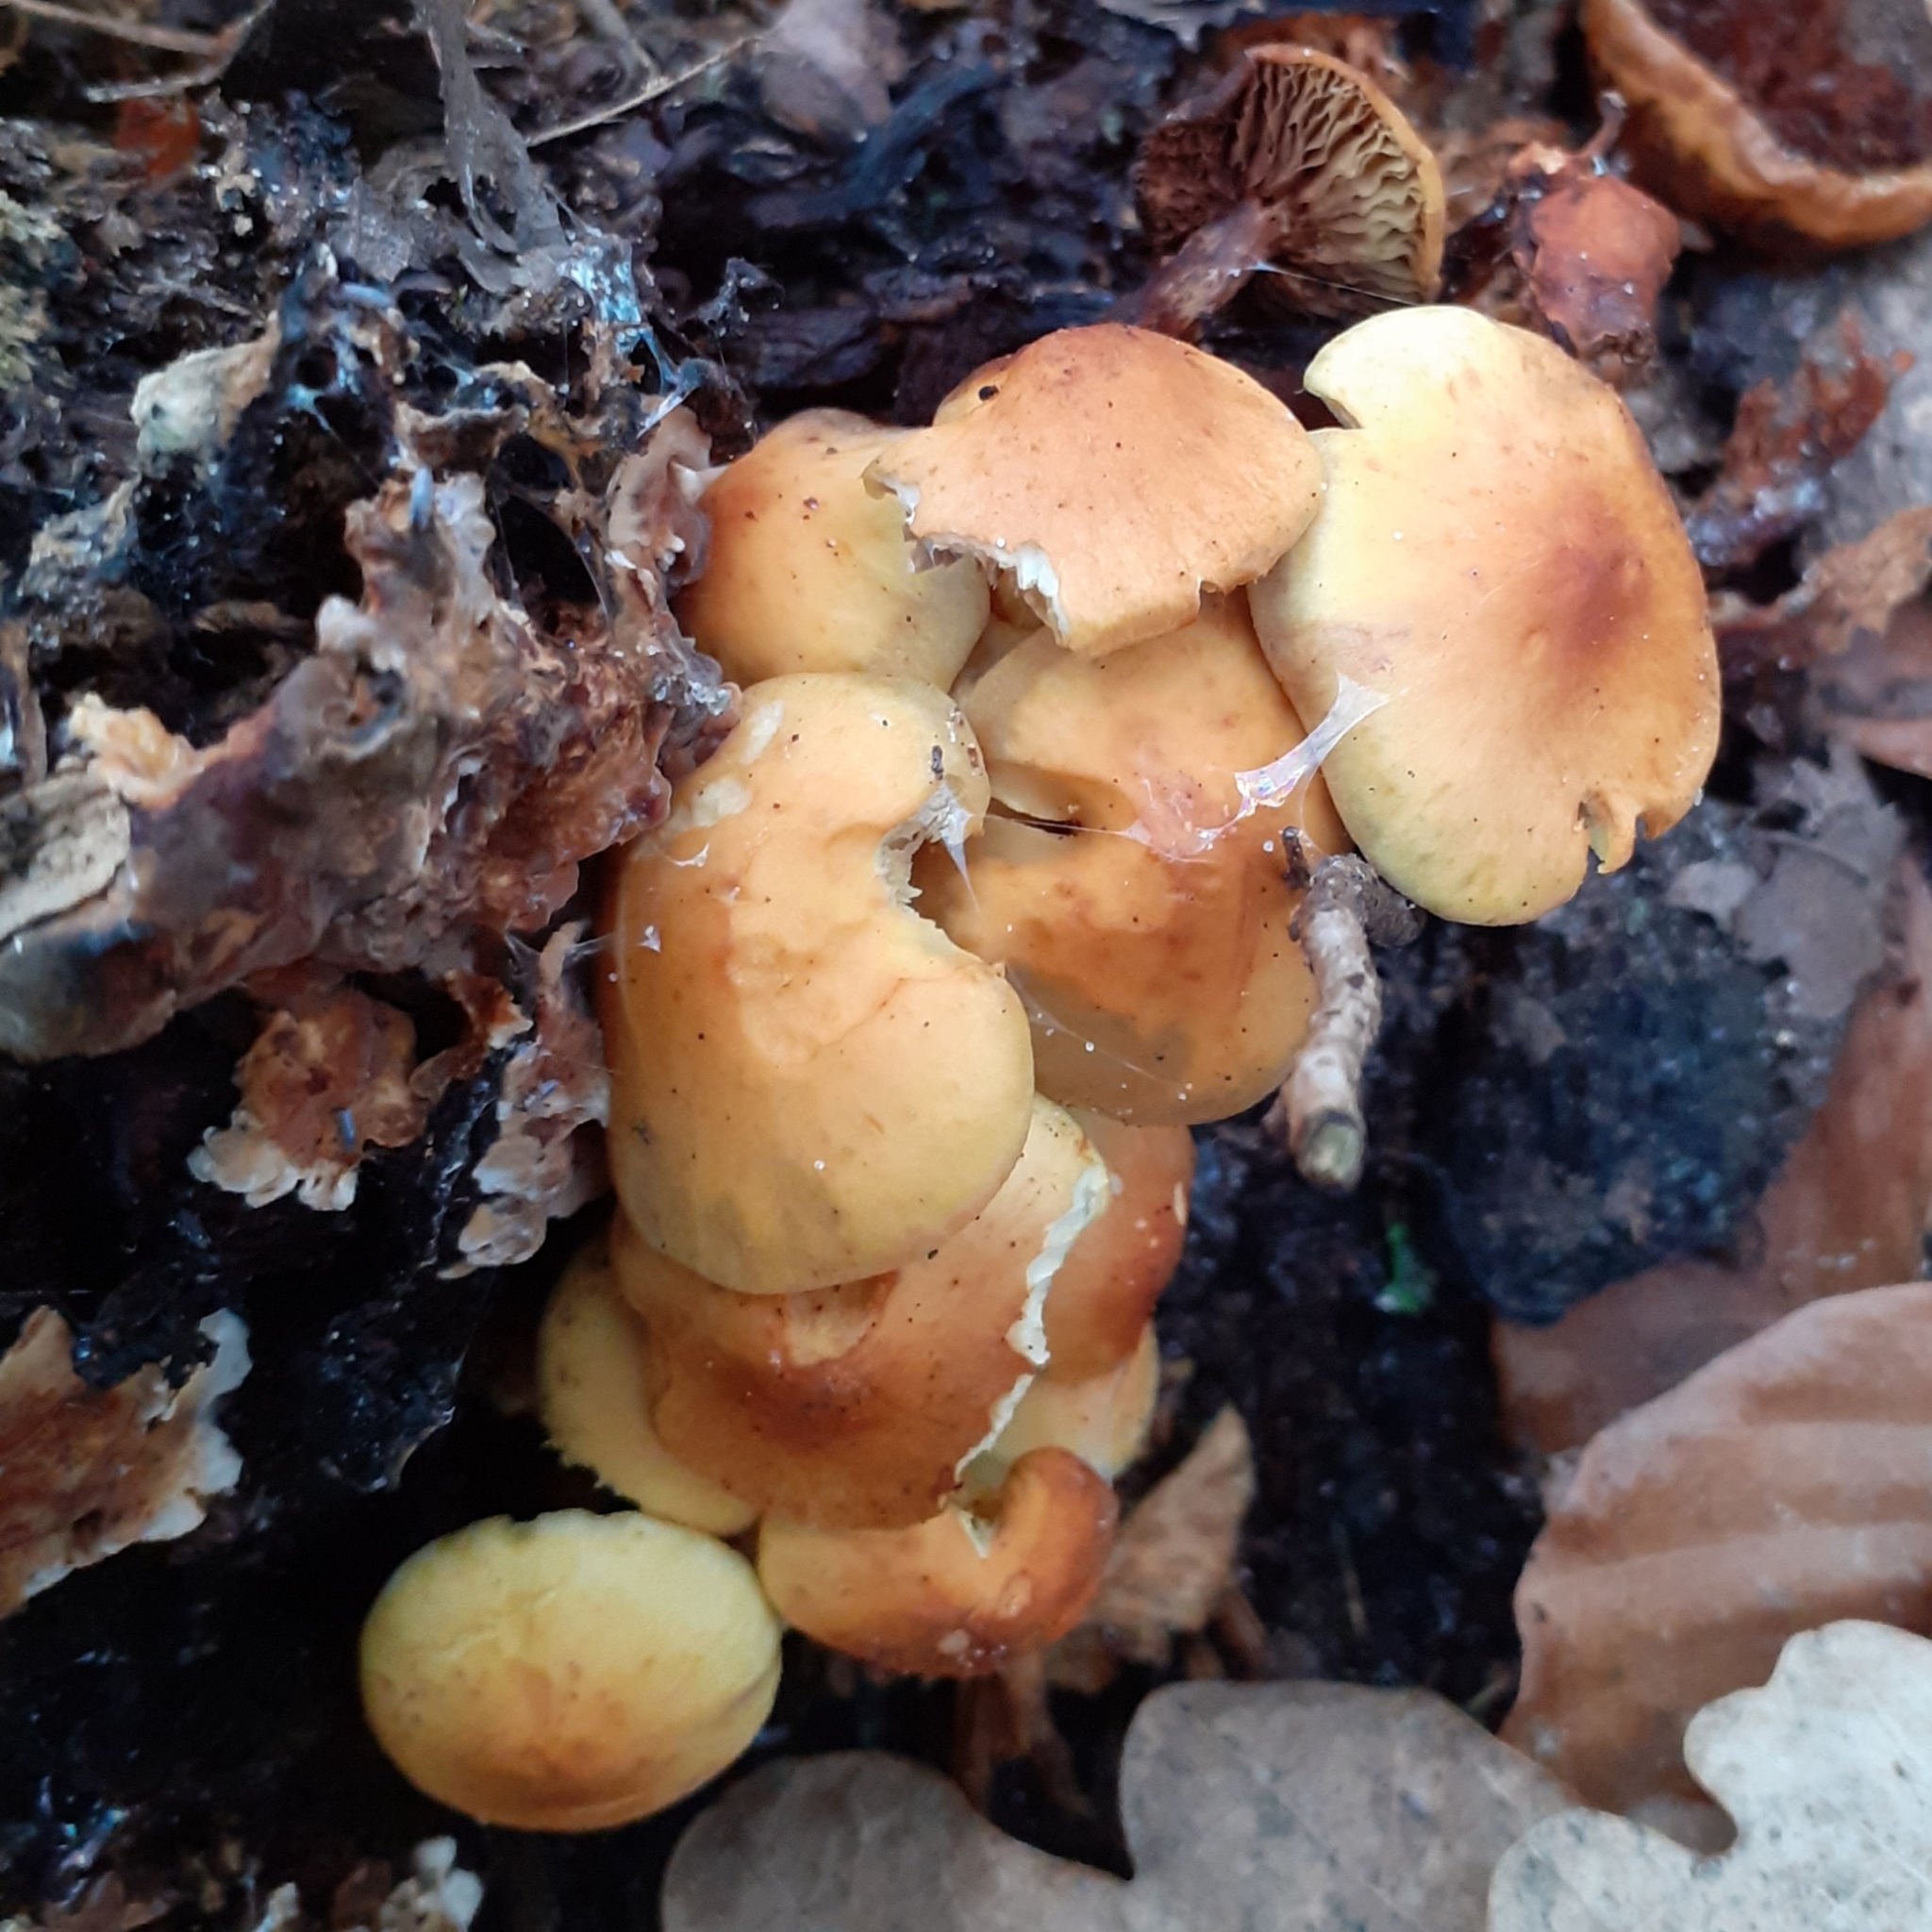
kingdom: Fungi
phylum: Basidiomycota
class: Agaricomycetes
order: Agaricales
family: Strophariaceae
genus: Hypholoma
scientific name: Hypholoma fasciculare
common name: Sulphur tuft
